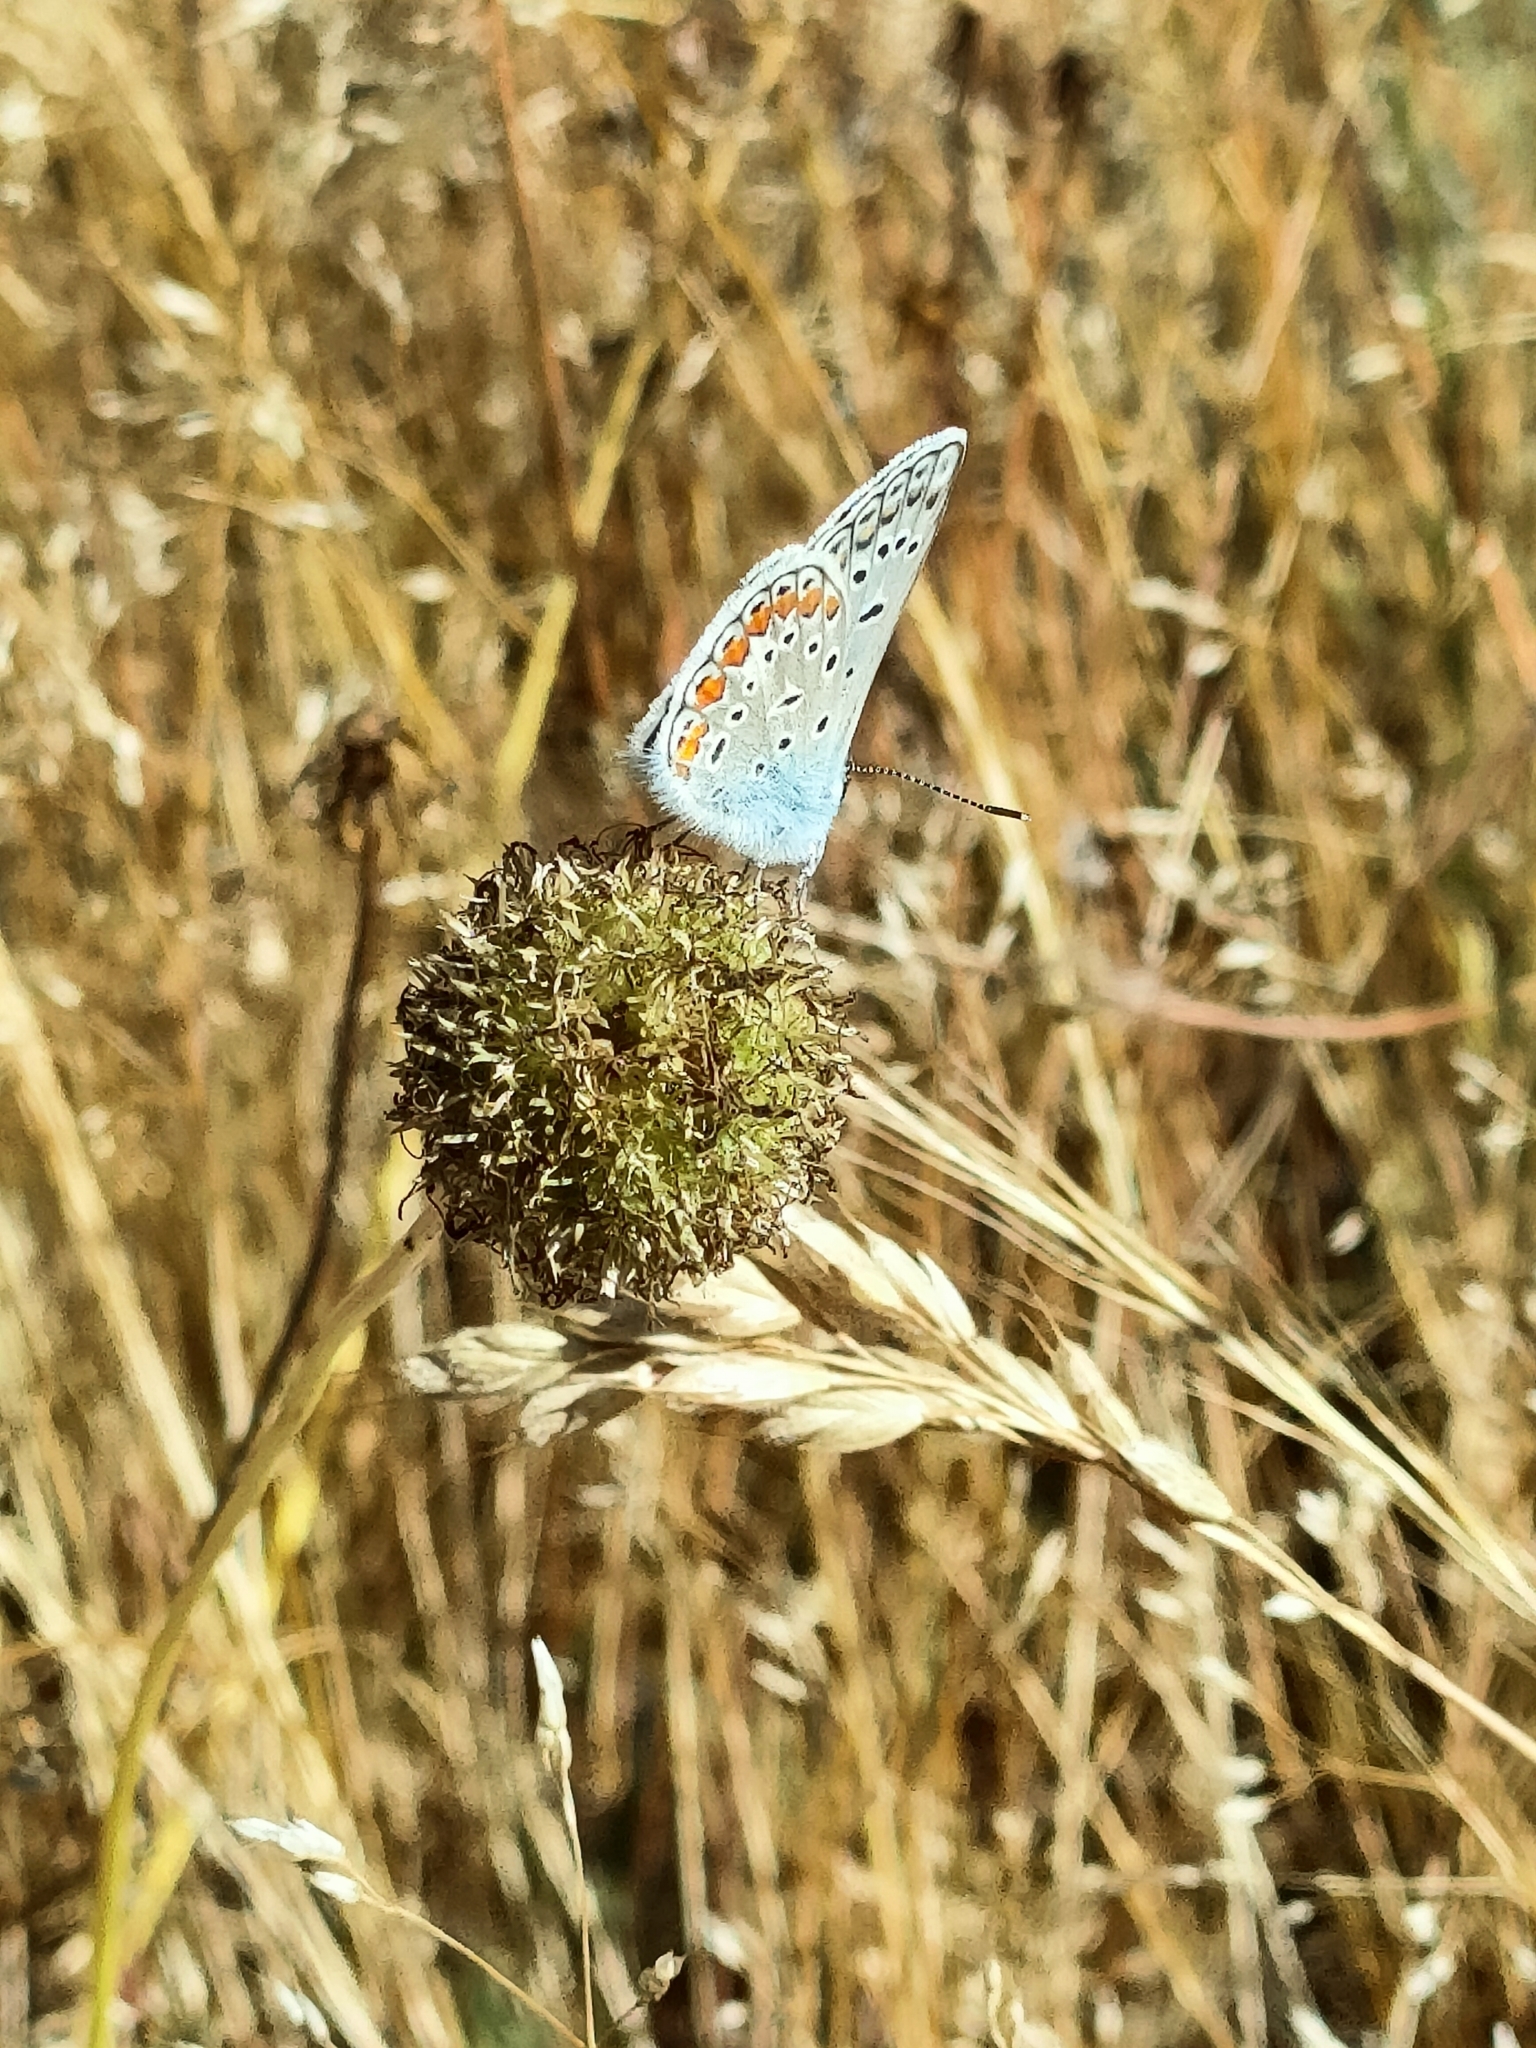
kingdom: Animalia
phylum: Arthropoda
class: Insecta
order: Lepidoptera
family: Lycaenidae
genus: Polyommatus
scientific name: Polyommatus icarus
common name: Common blue
